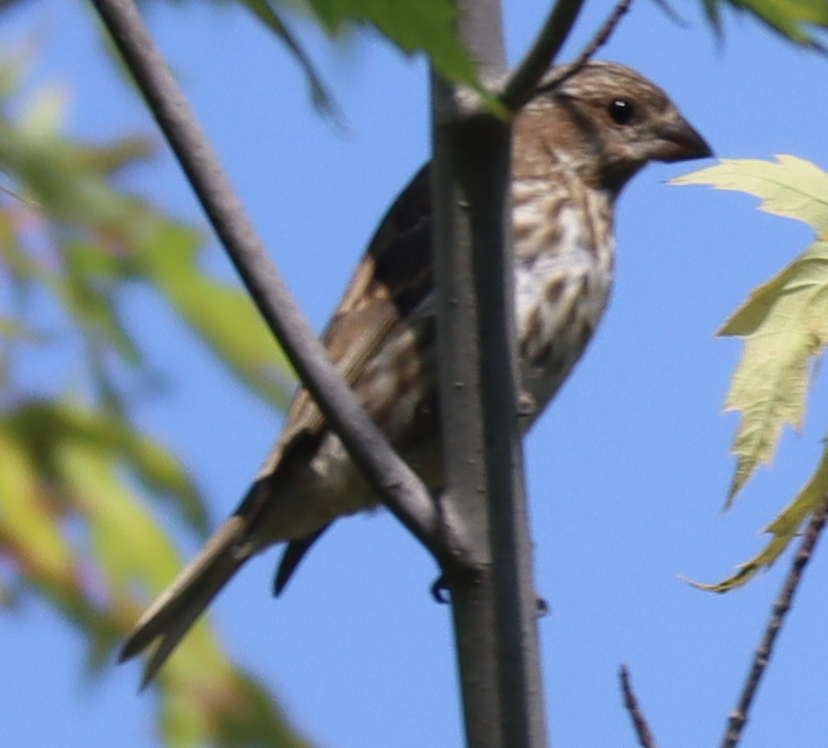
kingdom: Animalia
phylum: Chordata
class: Aves
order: Passeriformes
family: Fringillidae
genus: Haemorhous
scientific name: Haemorhous purpureus
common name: Purple finch
